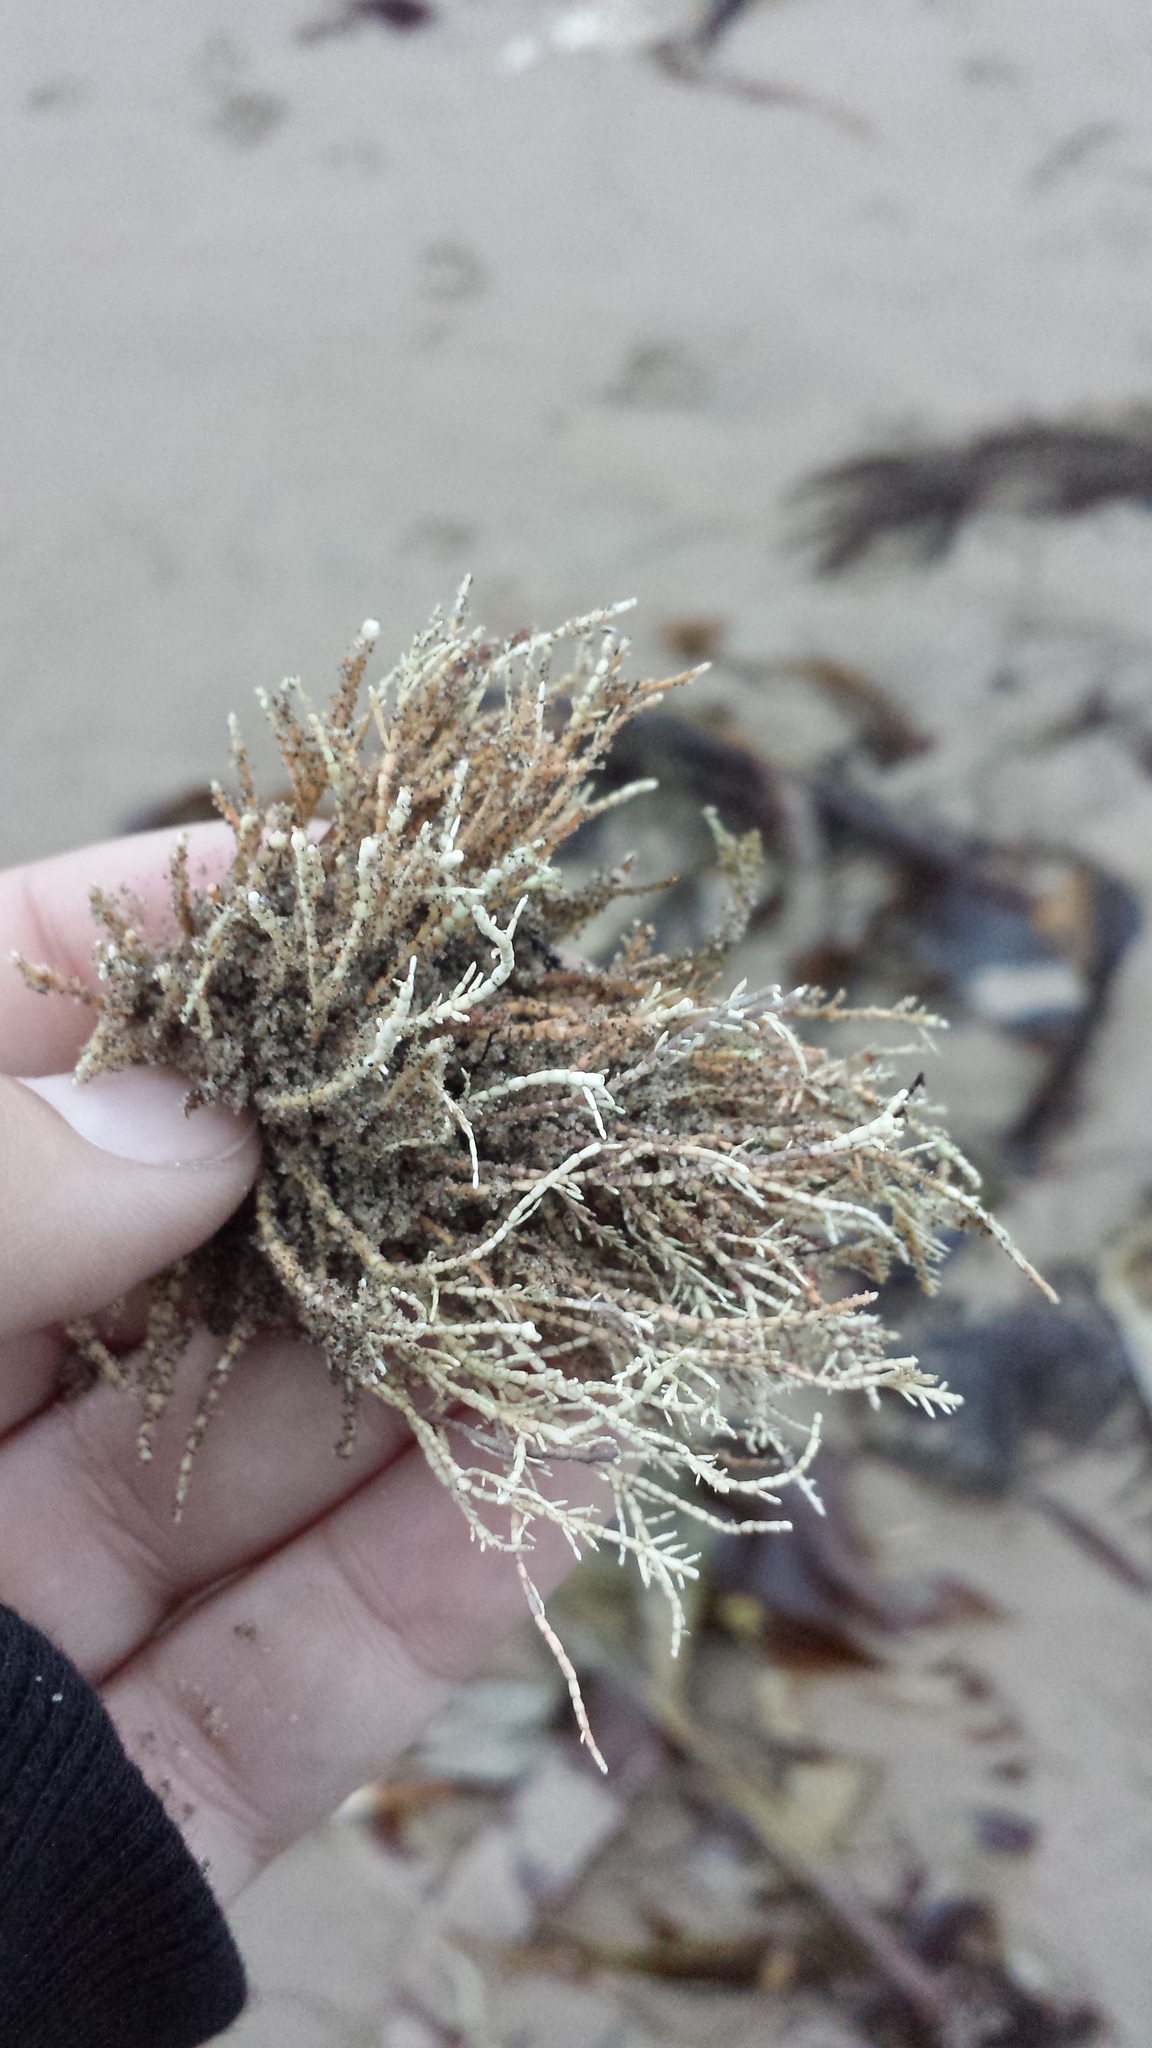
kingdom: Plantae
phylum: Rhodophyta
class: Florideophyceae
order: Corallinales
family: Corallinaceae
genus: Corallina
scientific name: Corallina officinalis
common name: Coral weed
